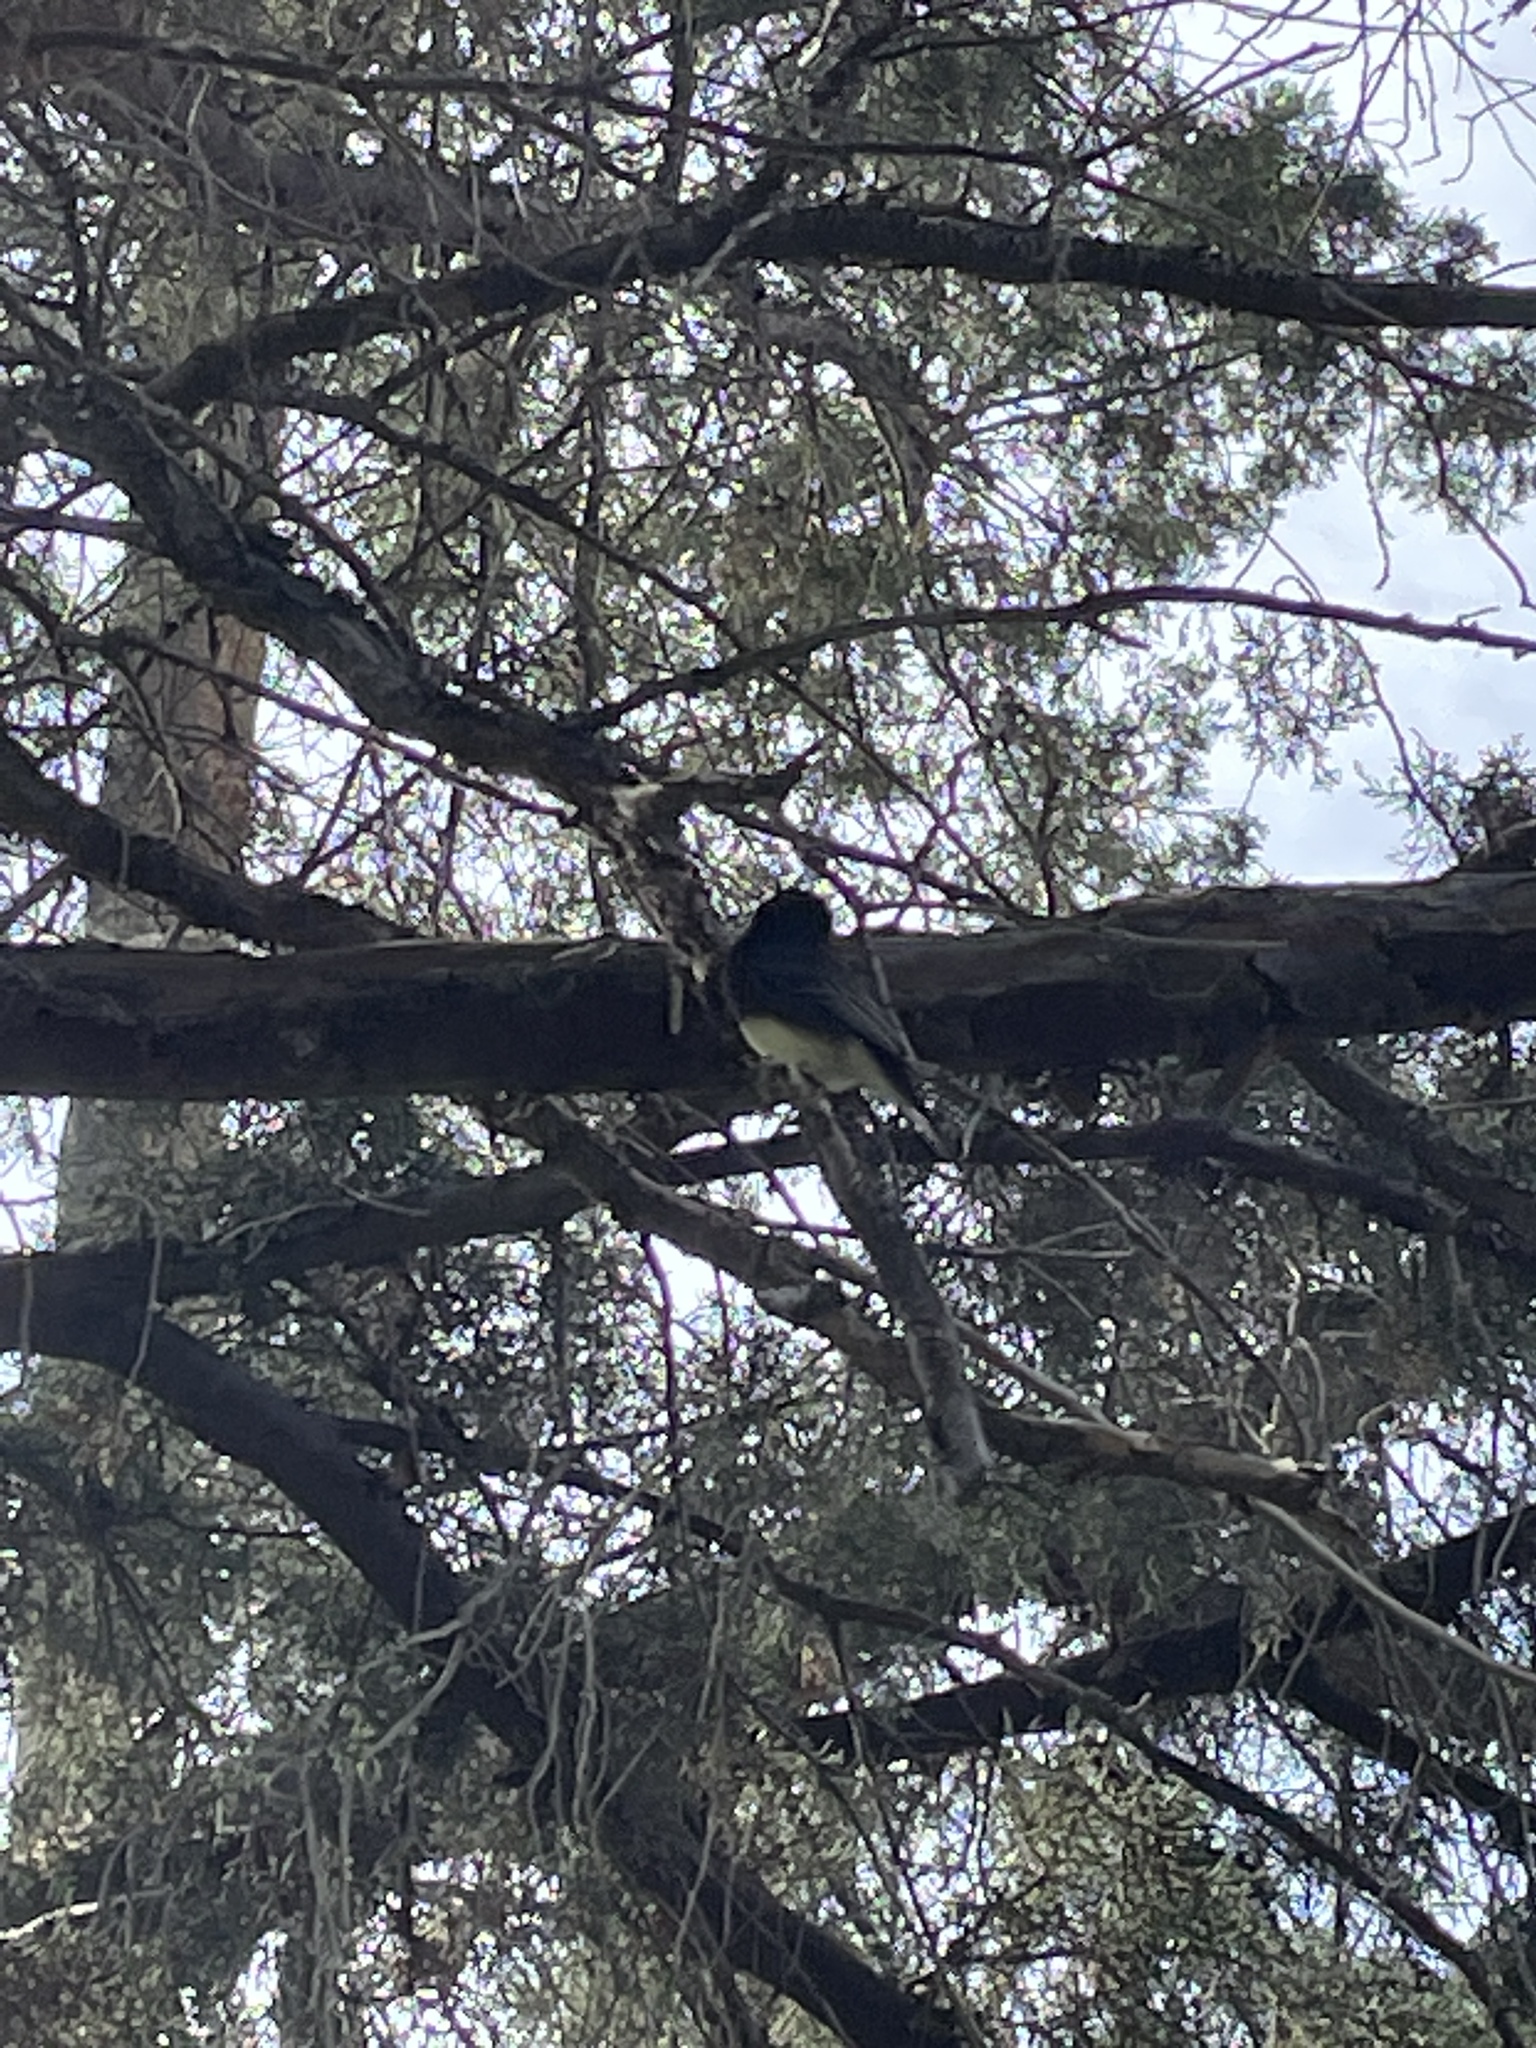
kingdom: Animalia
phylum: Chordata
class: Aves
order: Passeriformes
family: Tyrannidae
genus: Sayornis
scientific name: Sayornis nigricans
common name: Black phoebe
